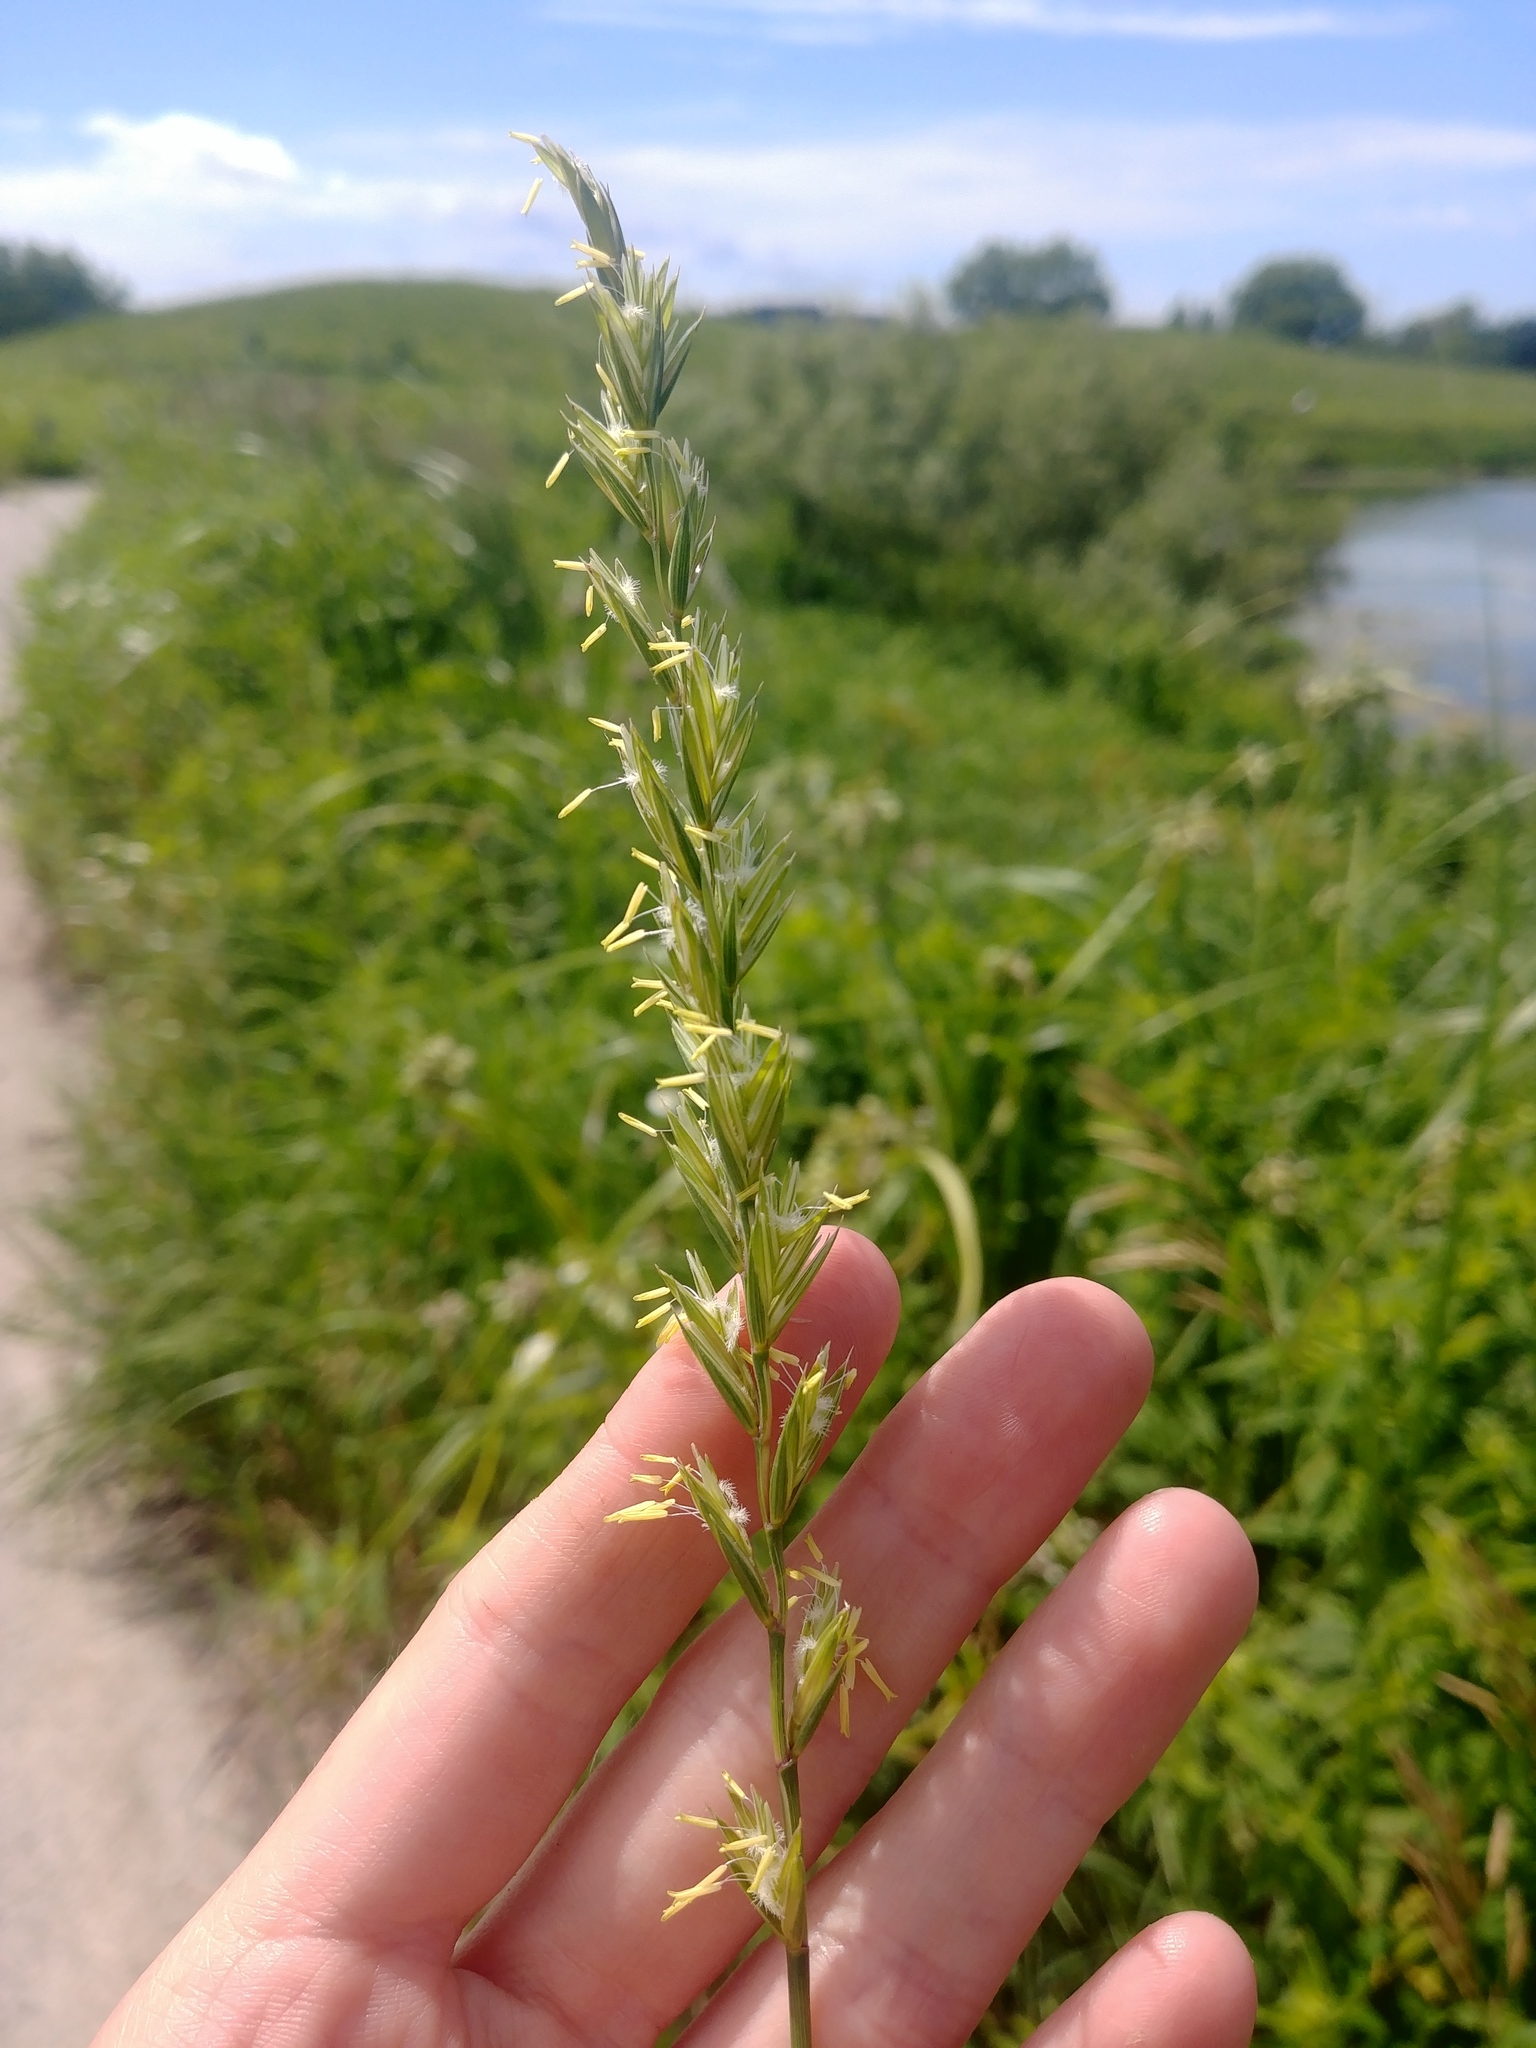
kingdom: Plantae
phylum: Tracheophyta
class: Liliopsida
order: Poales
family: Poaceae
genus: Elymus
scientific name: Elymus repens
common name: Quackgrass
